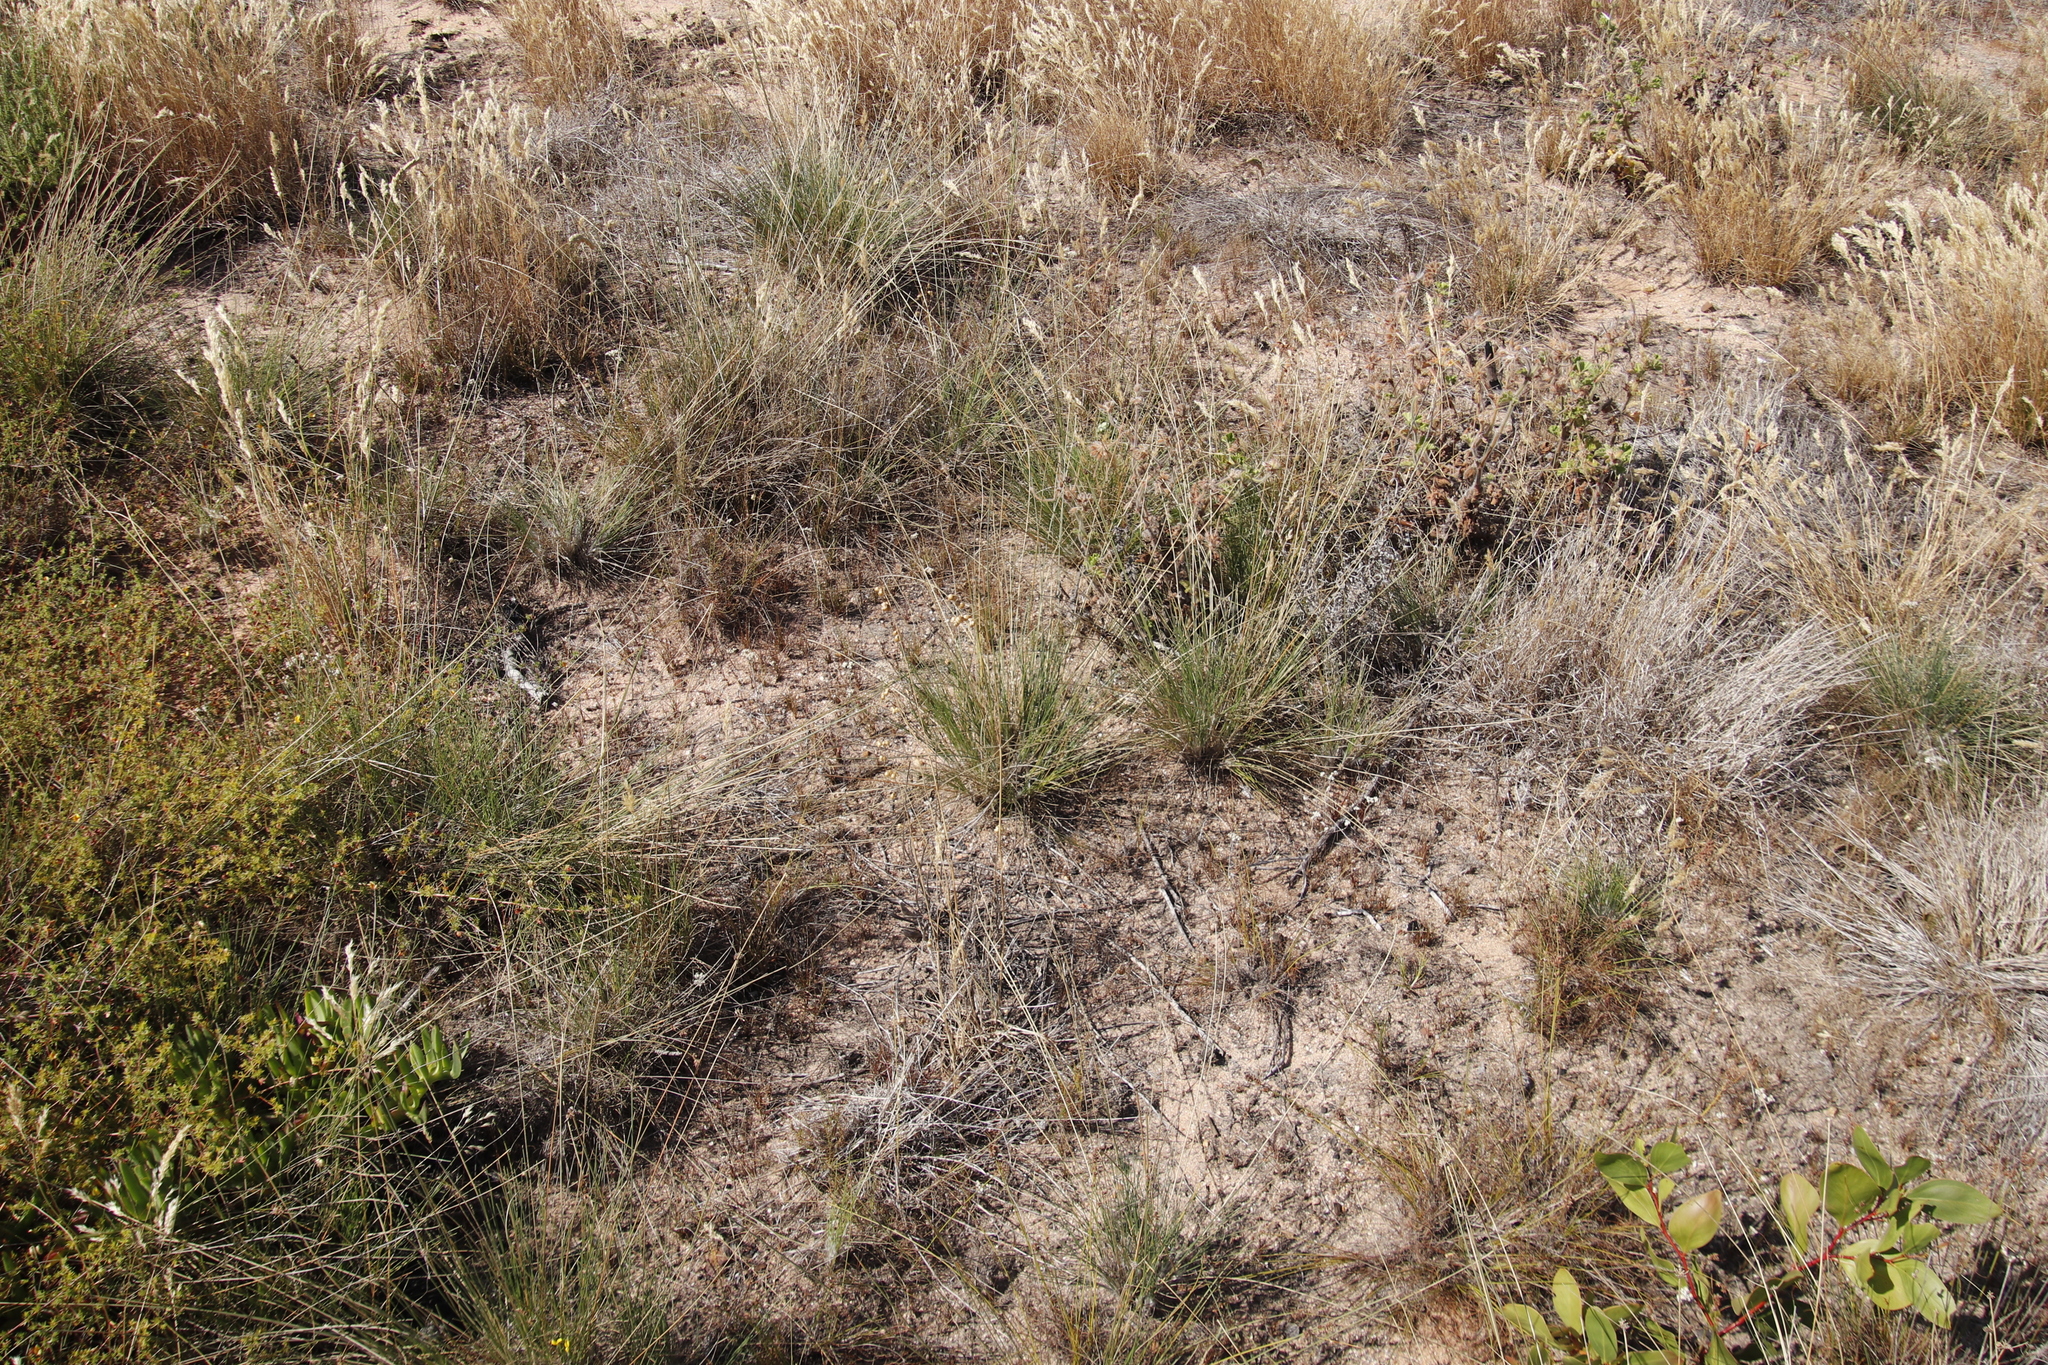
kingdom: Plantae
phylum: Tracheophyta
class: Liliopsida
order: Poales
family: Cyperaceae
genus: Ficinia
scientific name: Ficinia paradoxa
